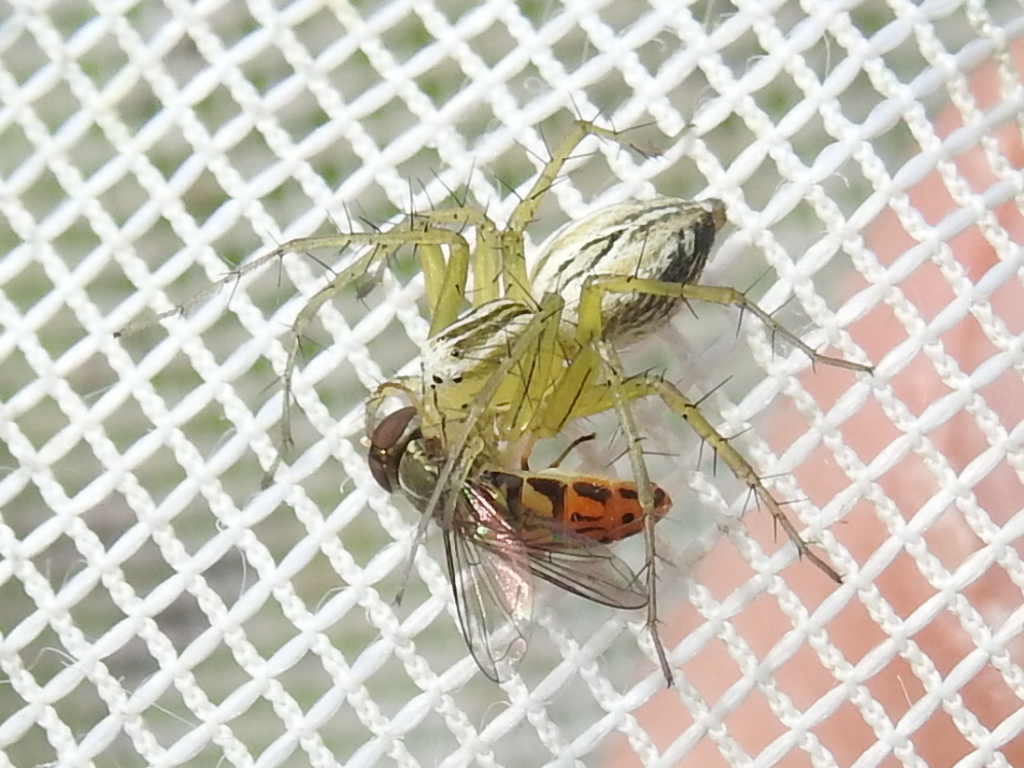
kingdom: Animalia
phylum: Arthropoda
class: Arachnida
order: Araneae
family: Oxyopidae
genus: Oxyopes
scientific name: Oxyopes salticus
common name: Lynx spiders
